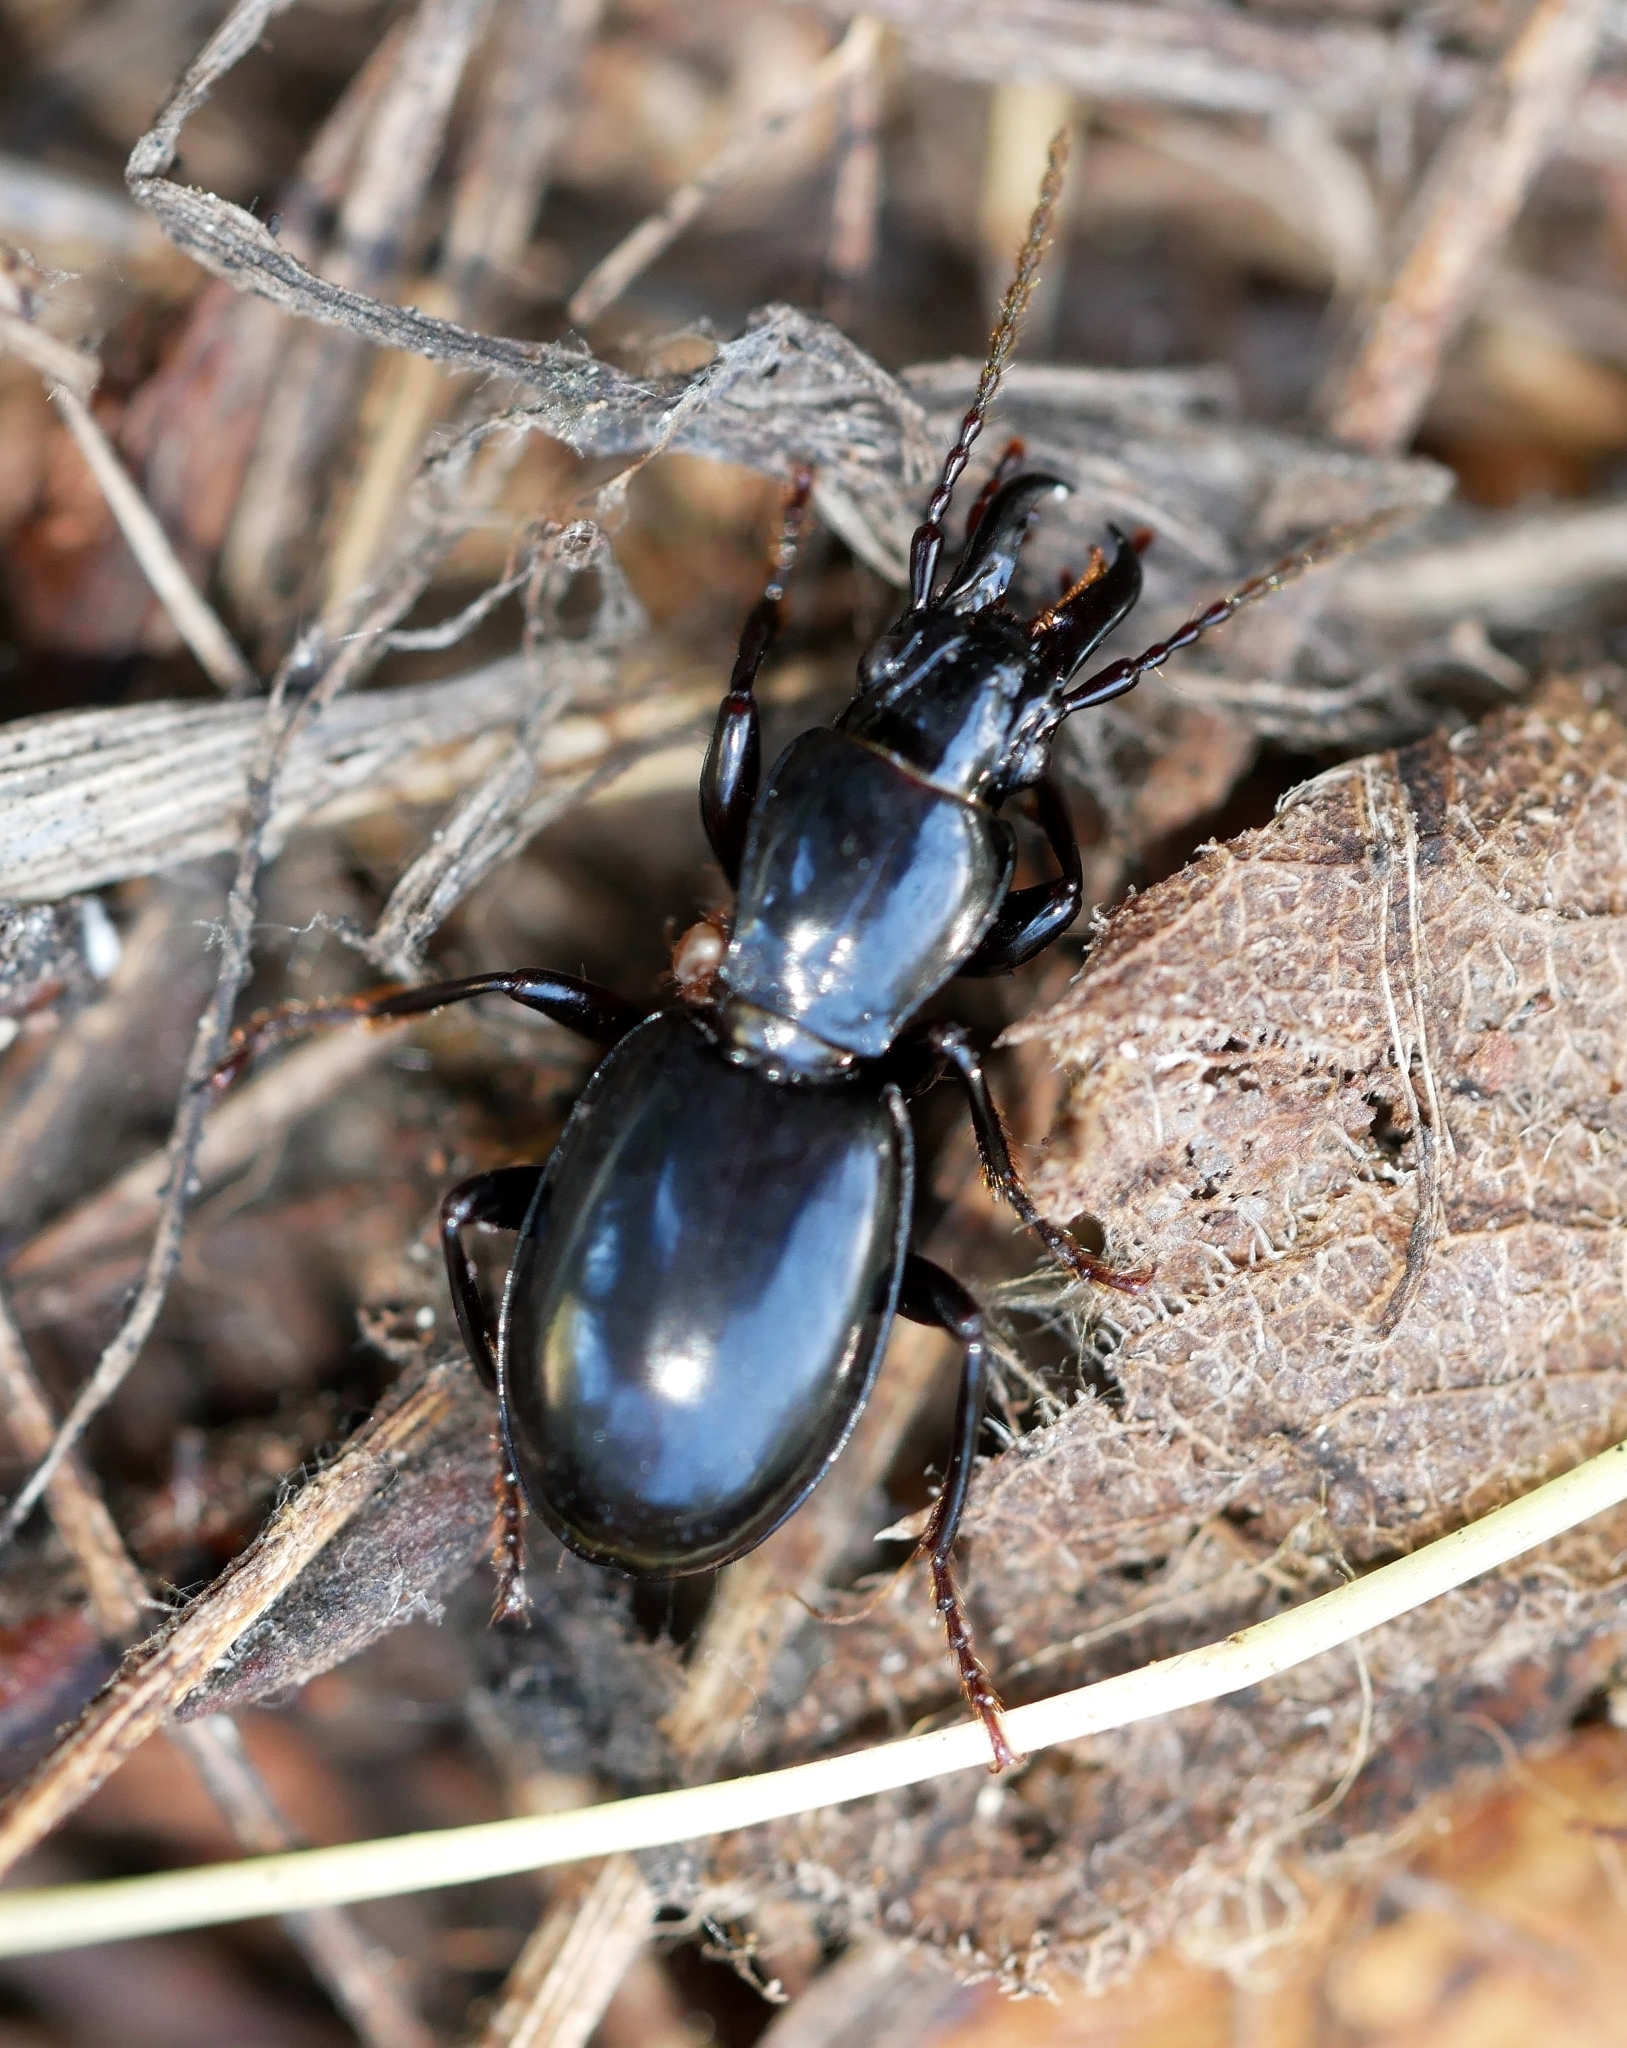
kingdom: Animalia
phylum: Arthropoda
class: Insecta
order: Coleoptera
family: Carabidae
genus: Promecognathus
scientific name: Promecognathus laevissimus
